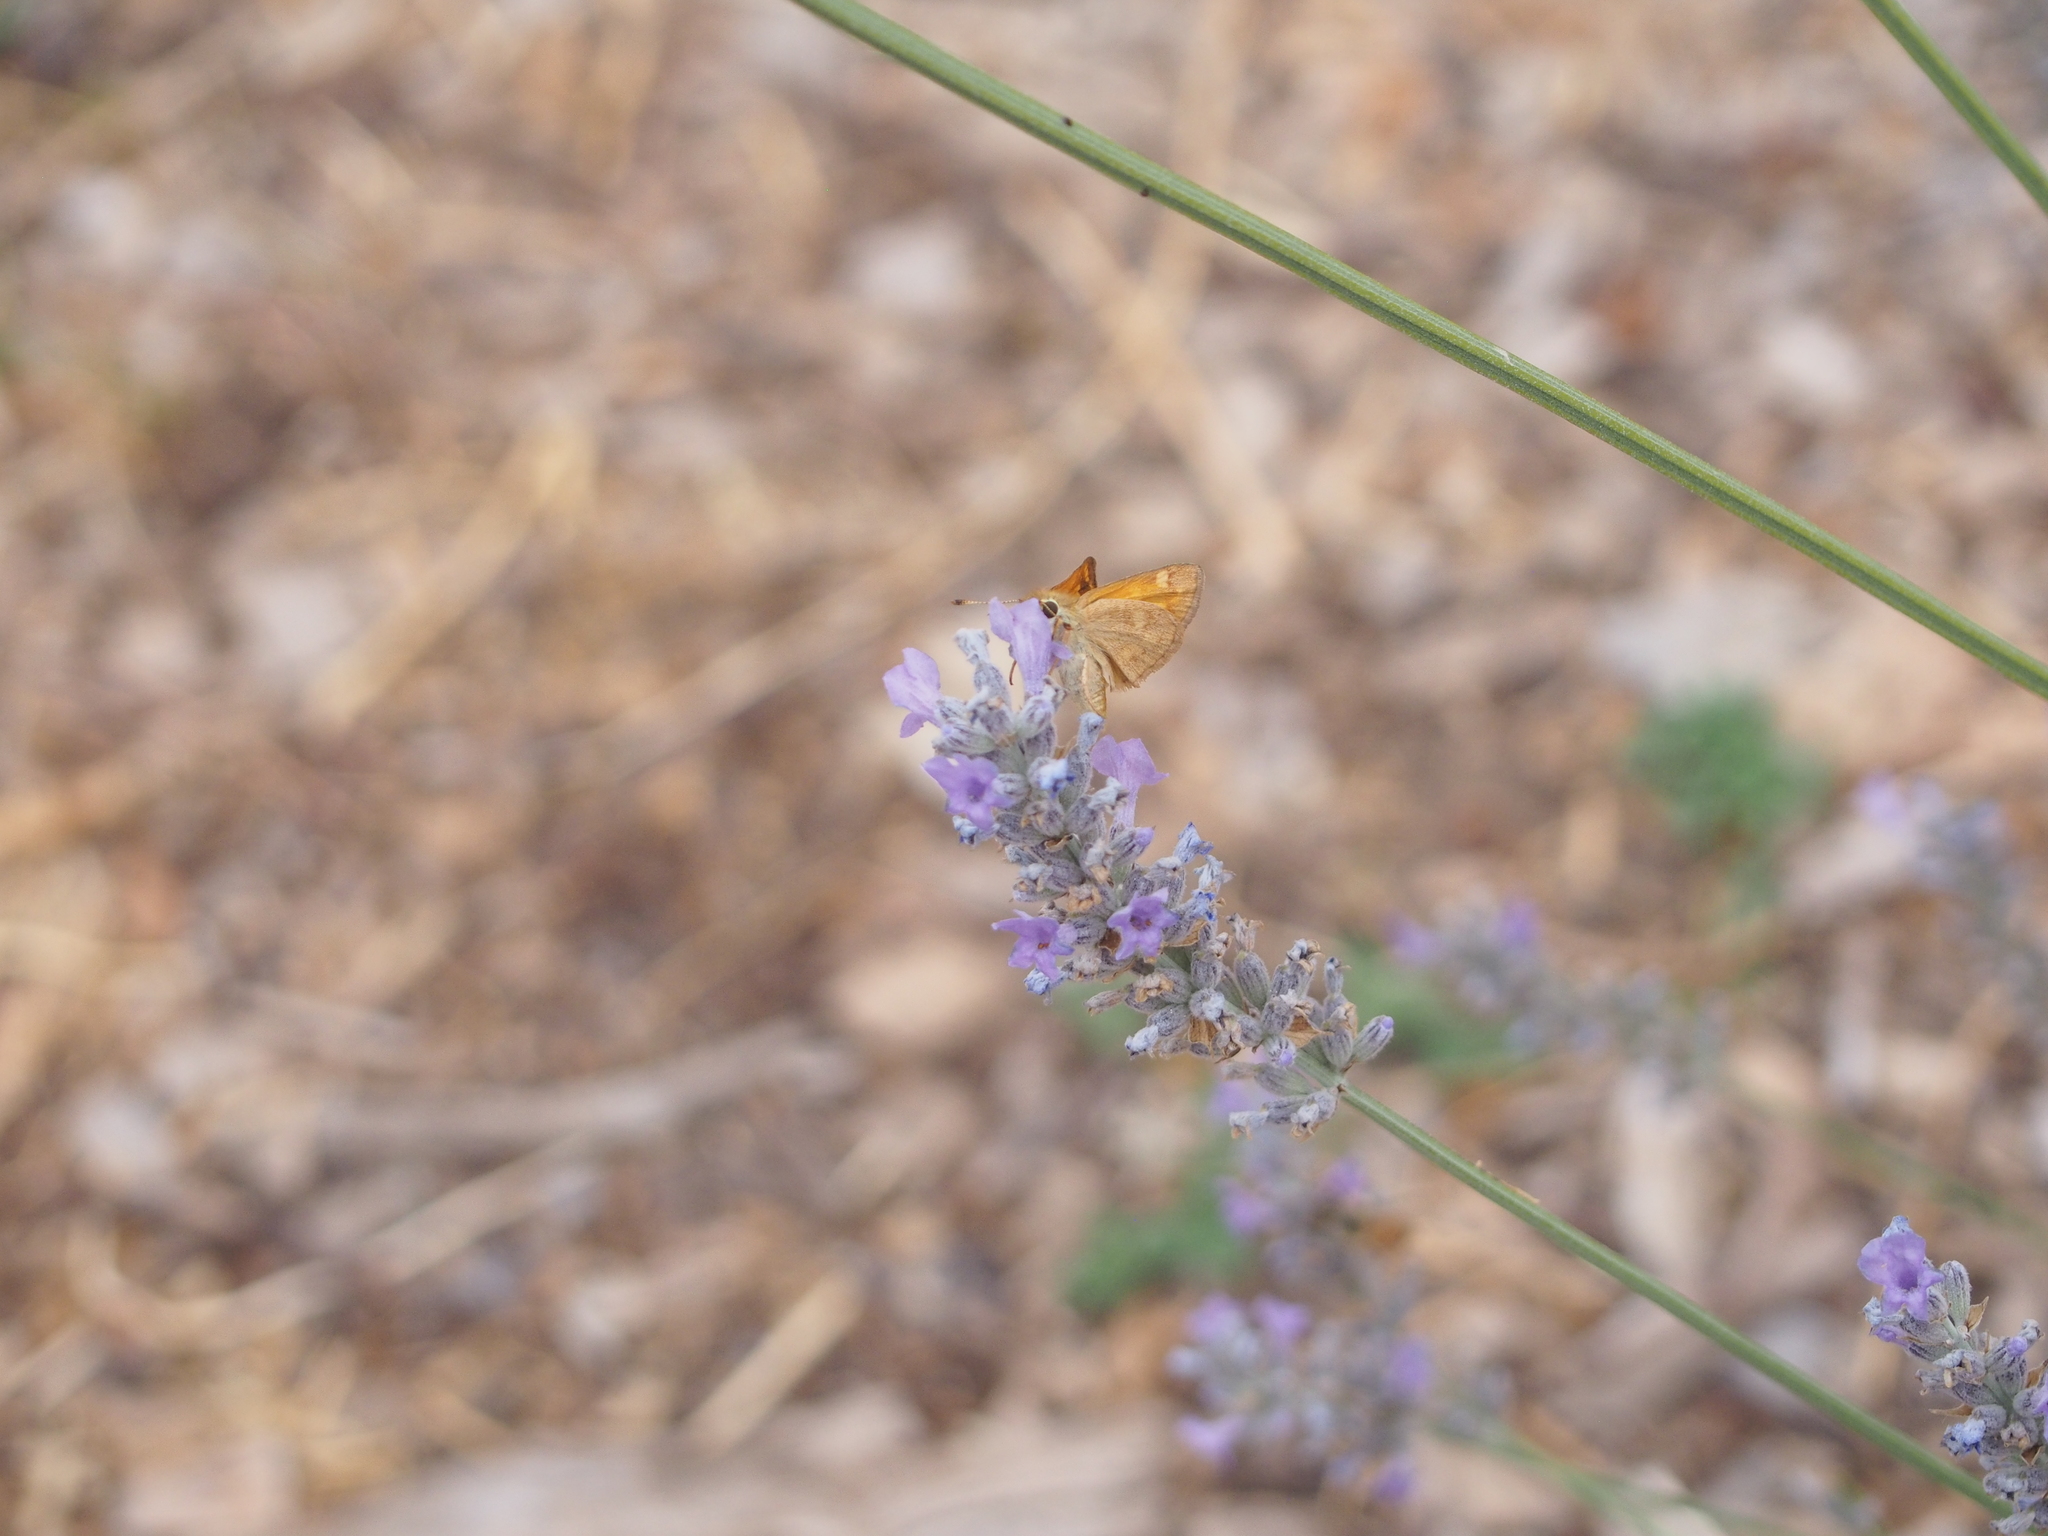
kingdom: Animalia
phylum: Arthropoda
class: Insecta
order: Lepidoptera
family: Hesperiidae
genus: Ochlodes
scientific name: Ochlodes sylvanoides
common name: Woodland skipper
